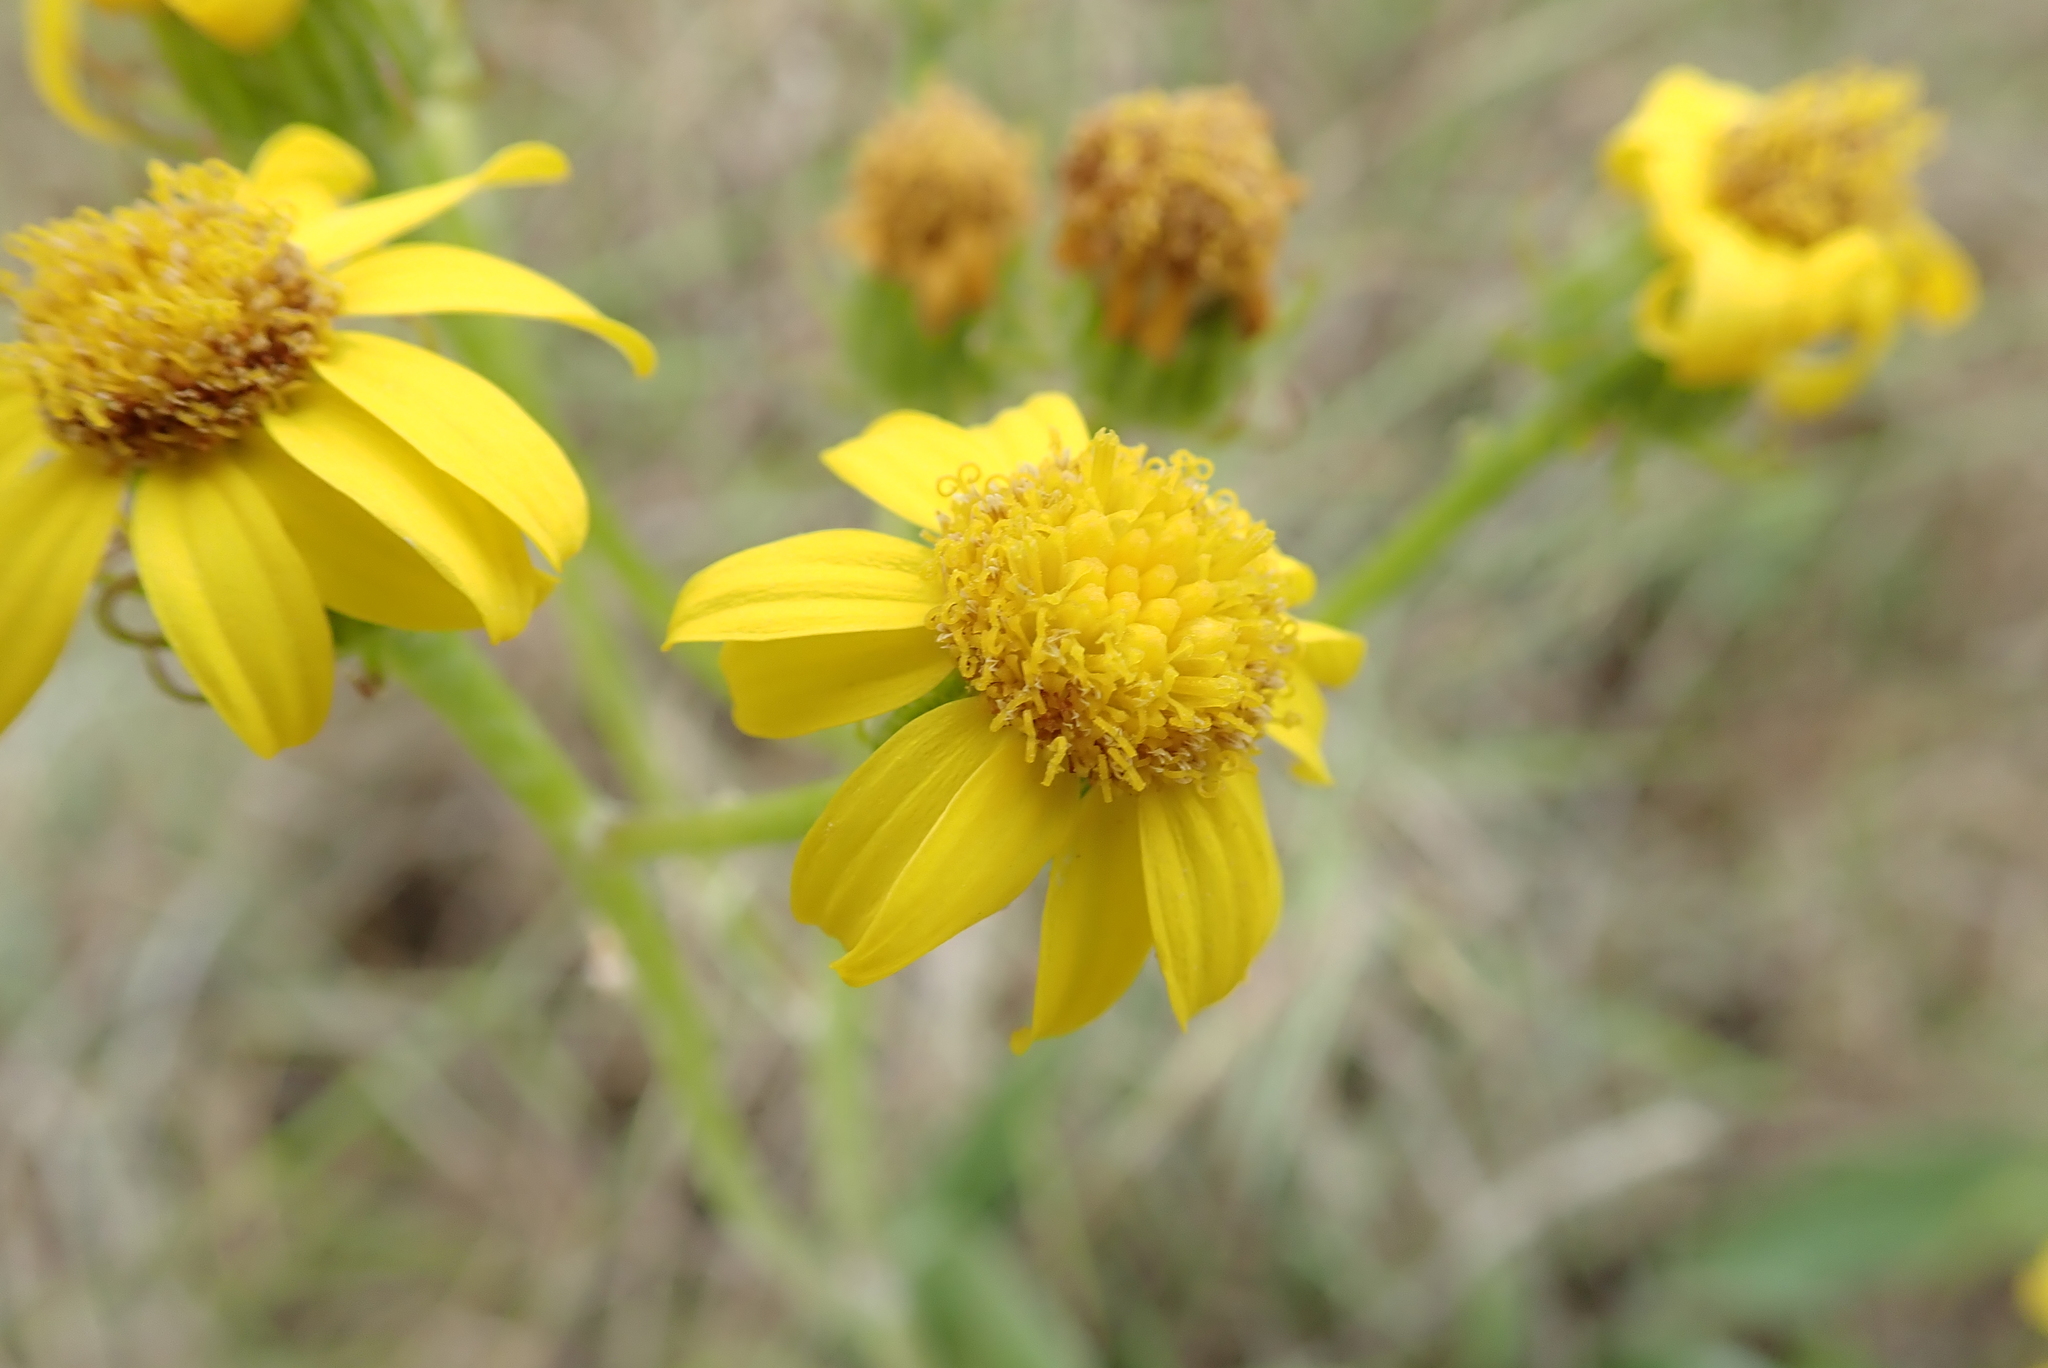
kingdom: Plantae
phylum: Tracheophyta
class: Magnoliopsida
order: Asterales
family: Asteraceae
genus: Senecio
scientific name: Senecio coronatus
